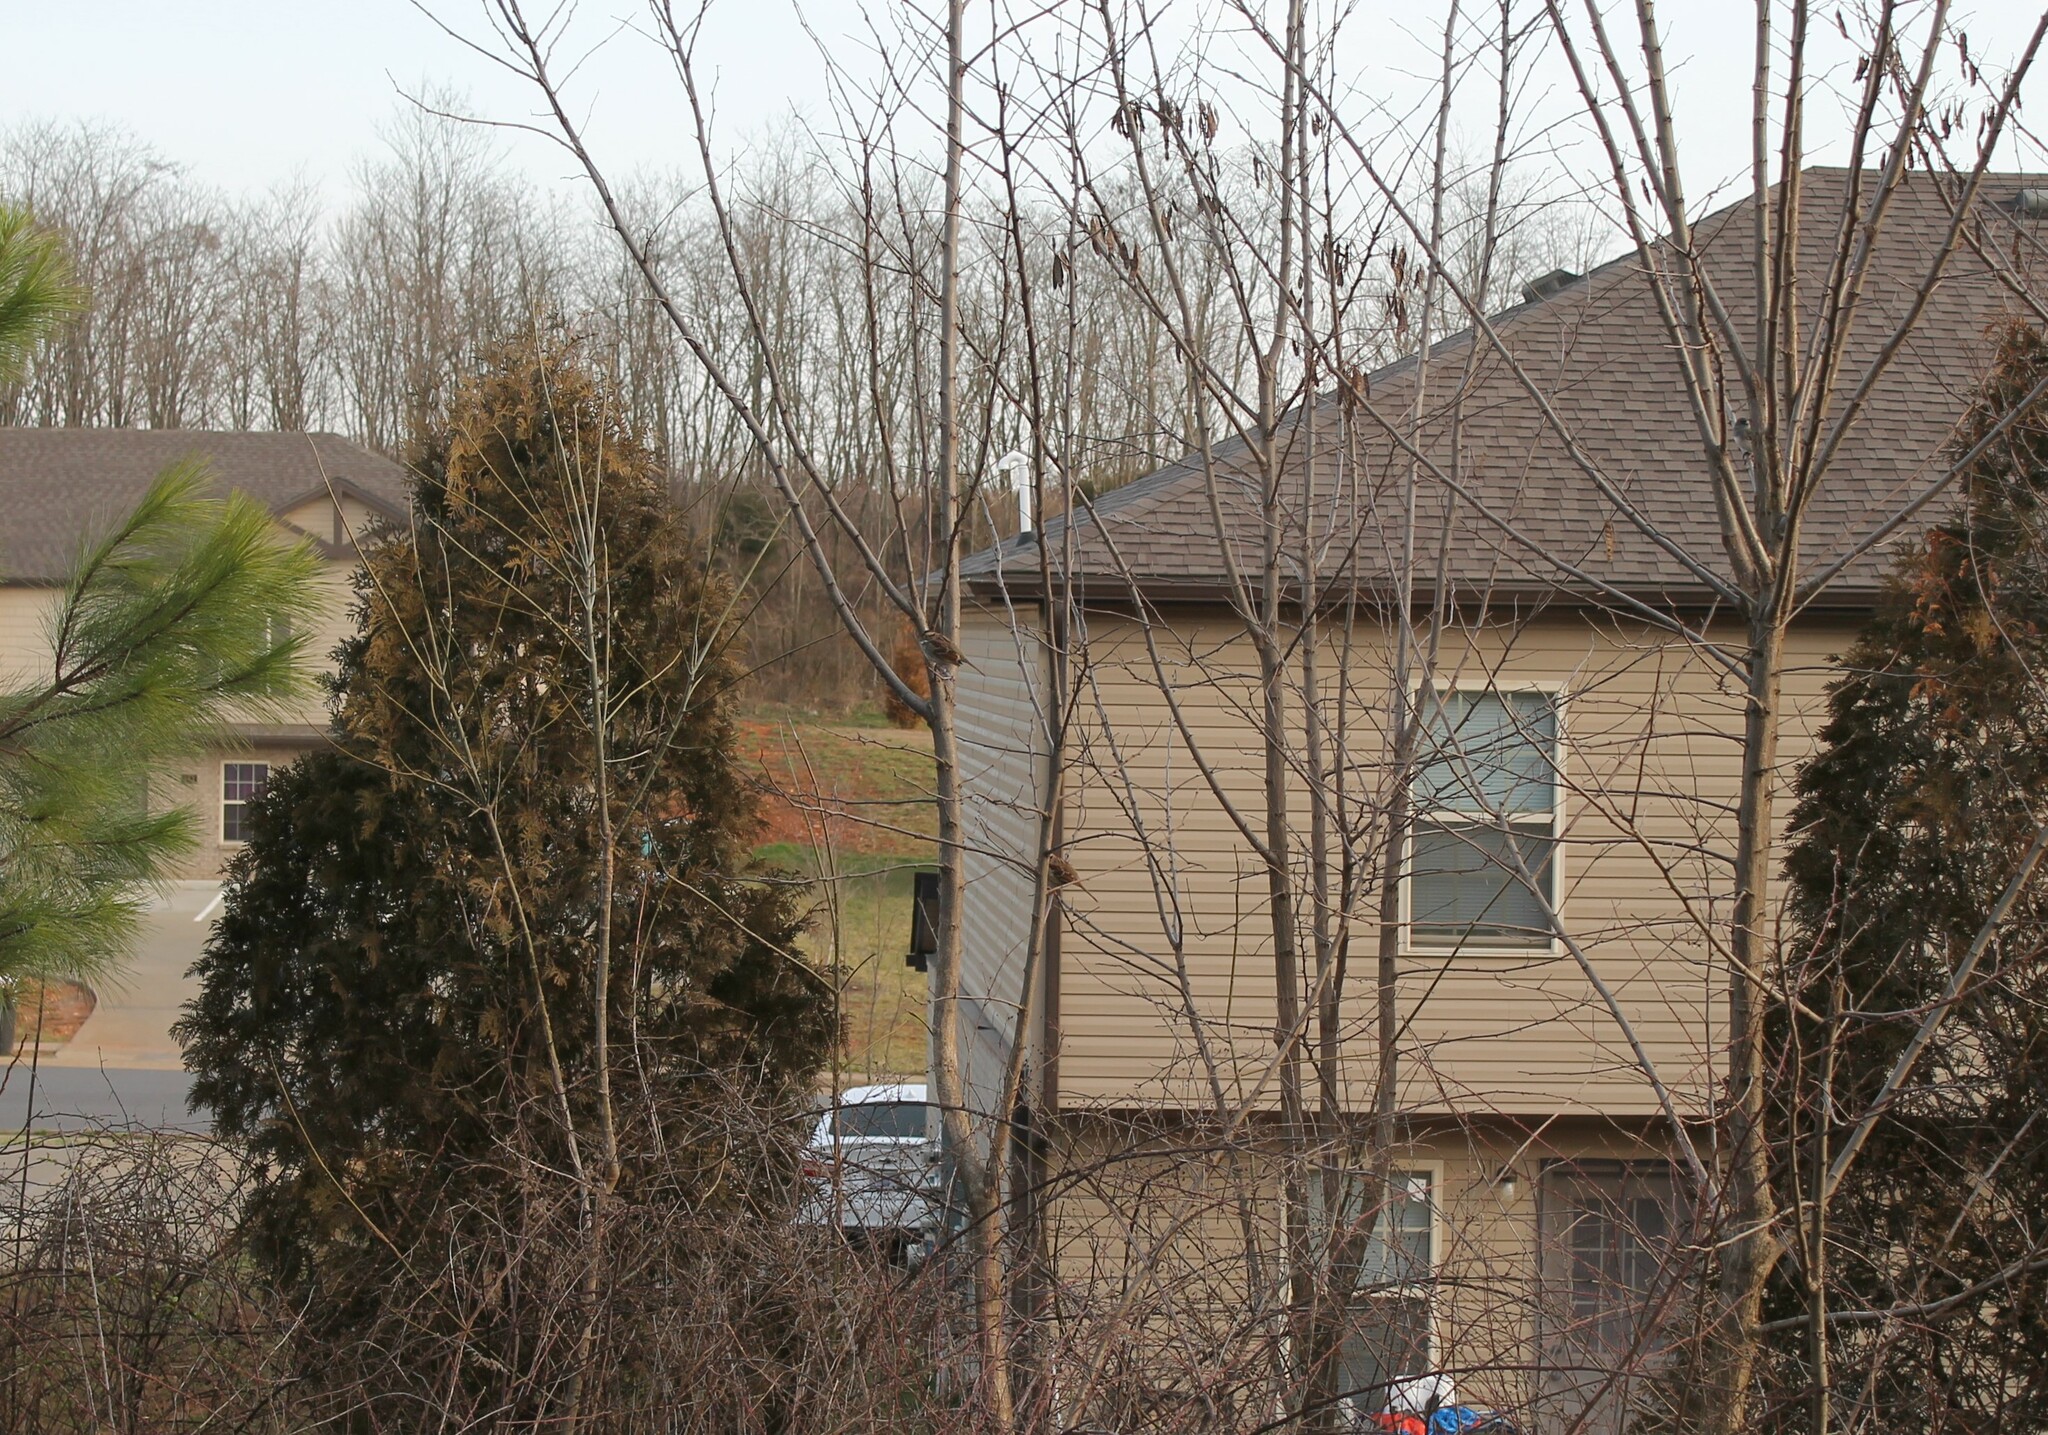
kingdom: Animalia
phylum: Chordata
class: Aves
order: Passeriformes
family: Passerellidae
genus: Zonotrichia
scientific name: Zonotrichia albicollis
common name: White-throated sparrow
